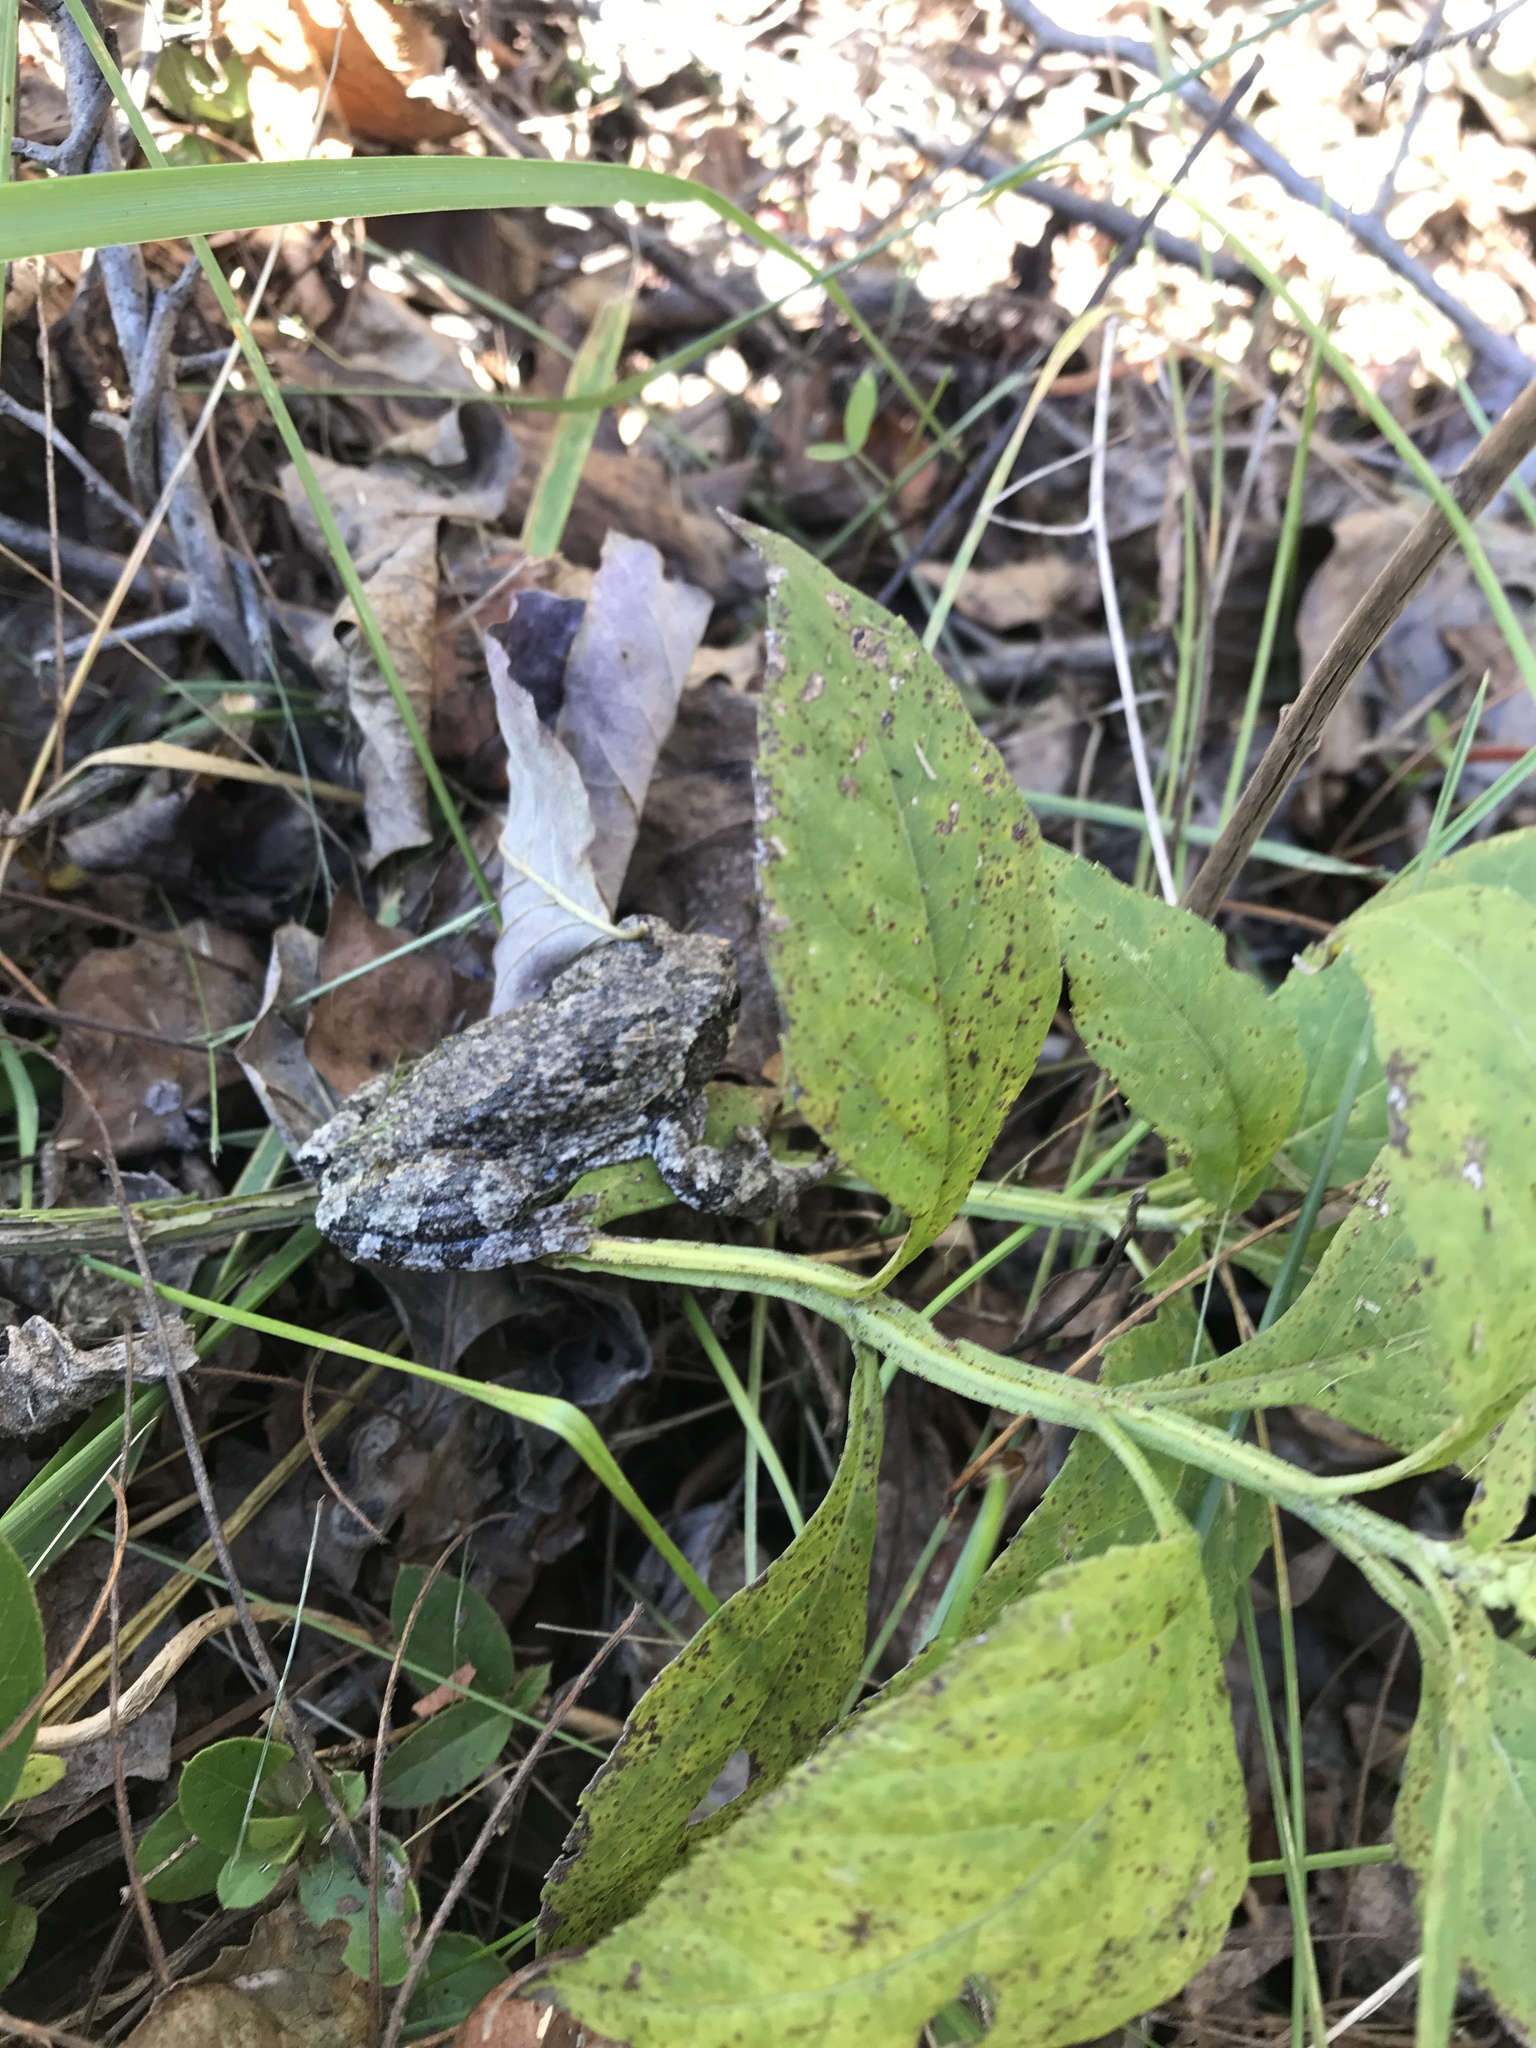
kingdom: Animalia
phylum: Chordata
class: Amphibia
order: Anura
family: Hylidae
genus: Dryophytes
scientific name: Dryophytes versicolor
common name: Gray treefrog
